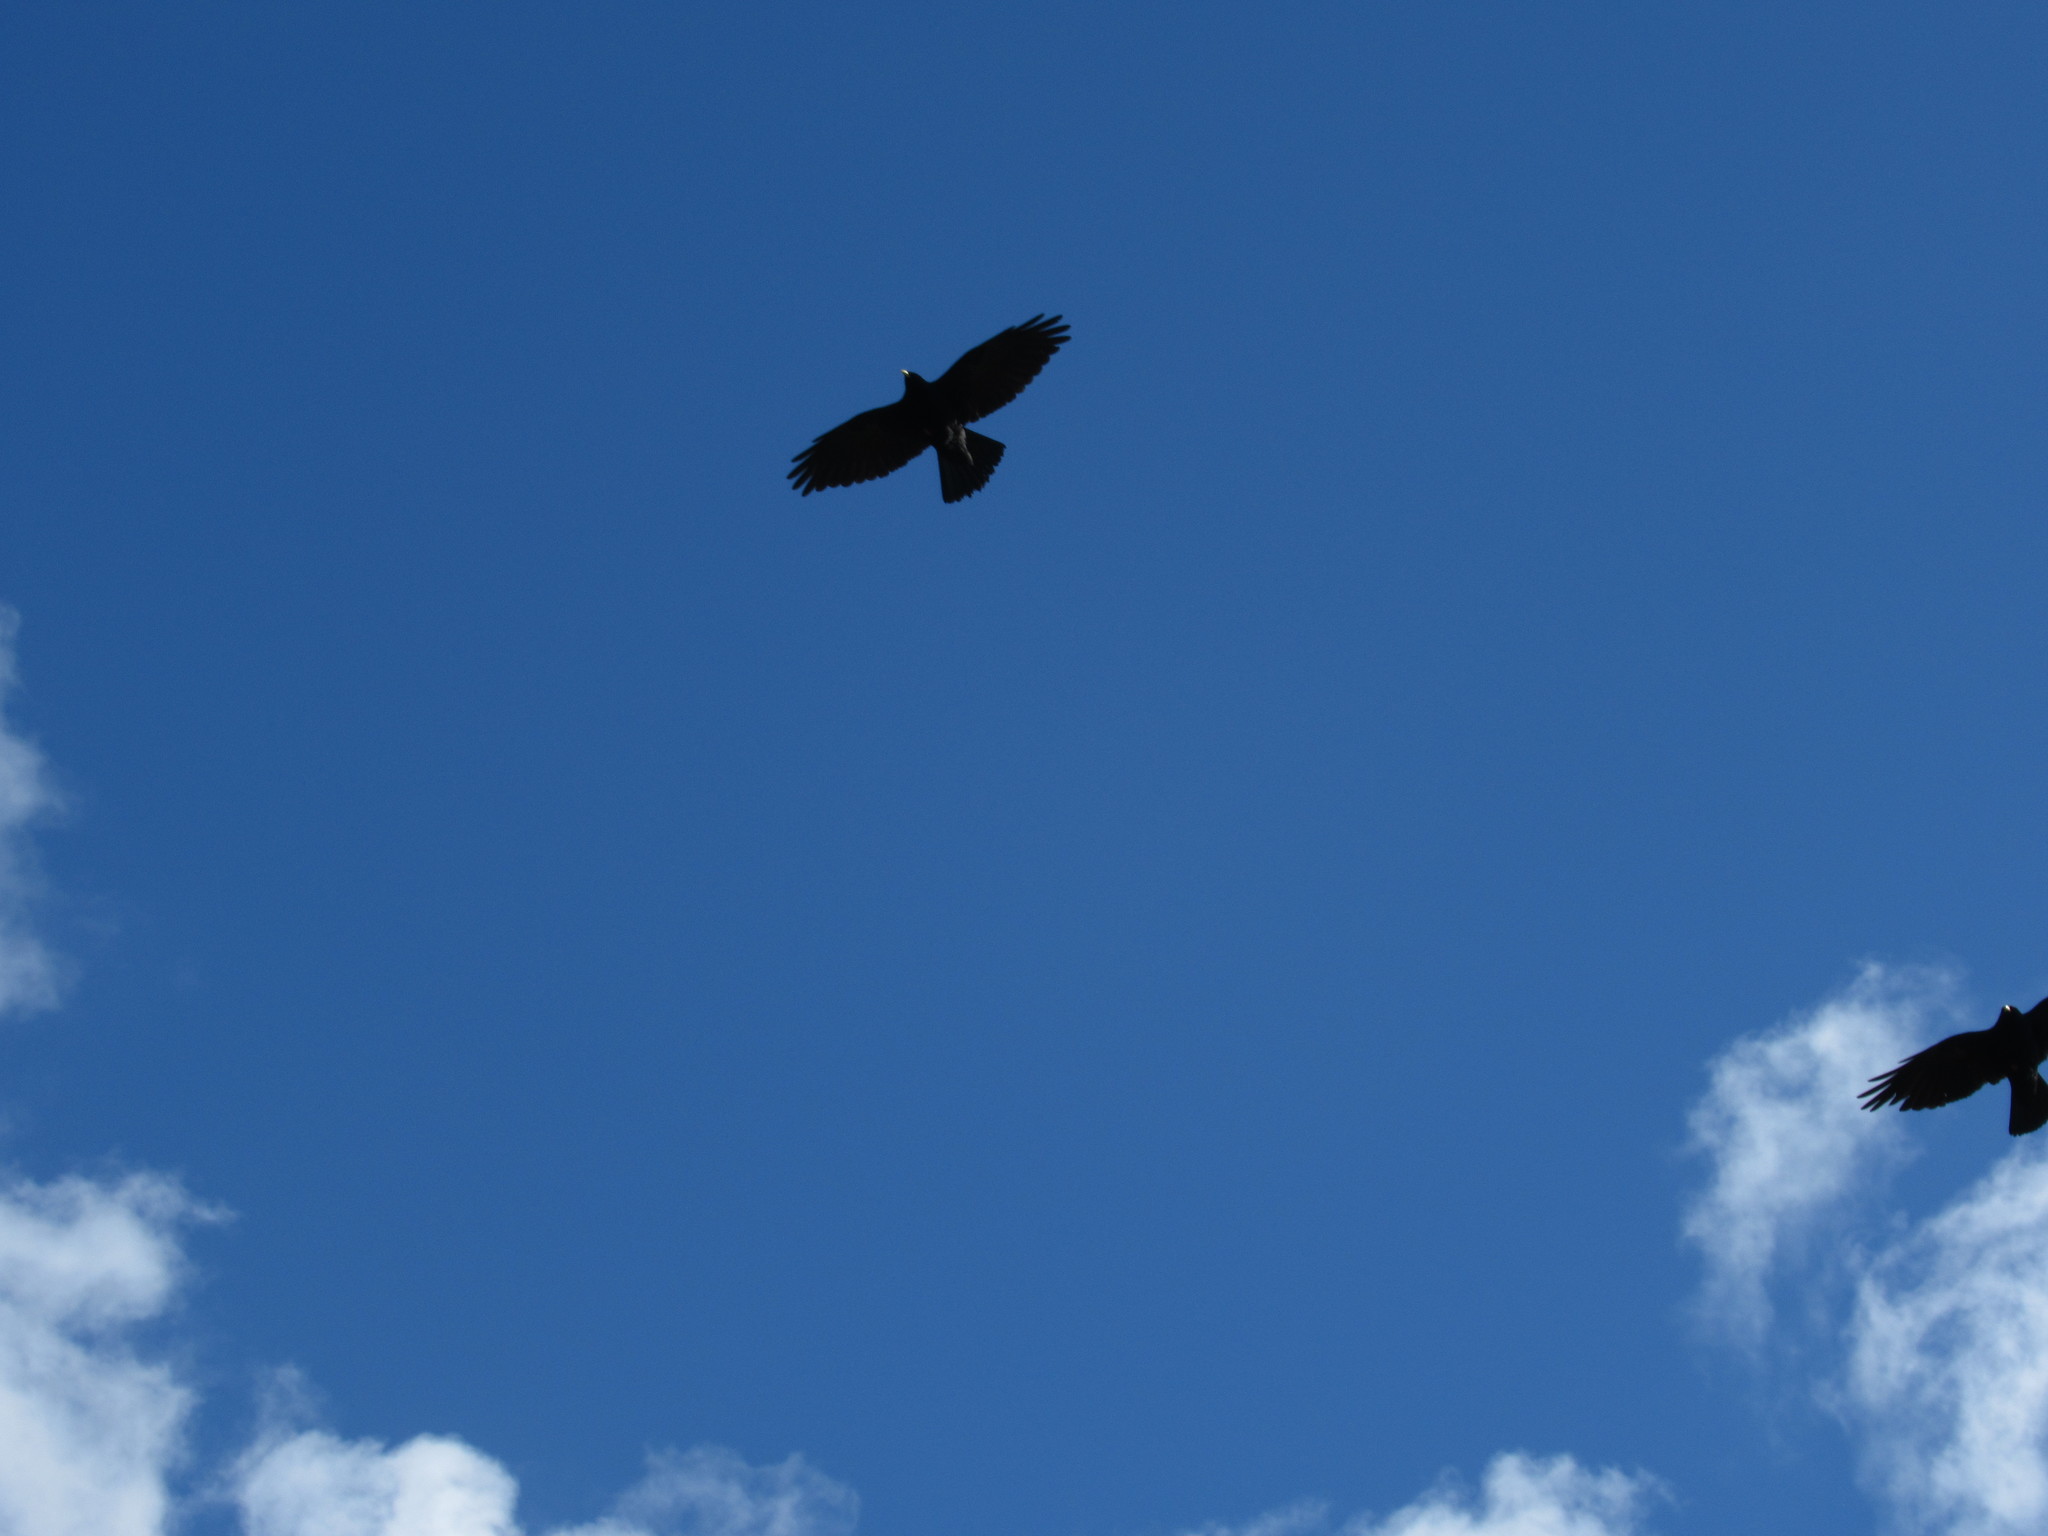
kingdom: Animalia
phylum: Chordata
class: Aves
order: Passeriformes
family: Corvidae
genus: Pyrrhocorax
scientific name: Pyrrhocorax graculus
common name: Alpine chough
